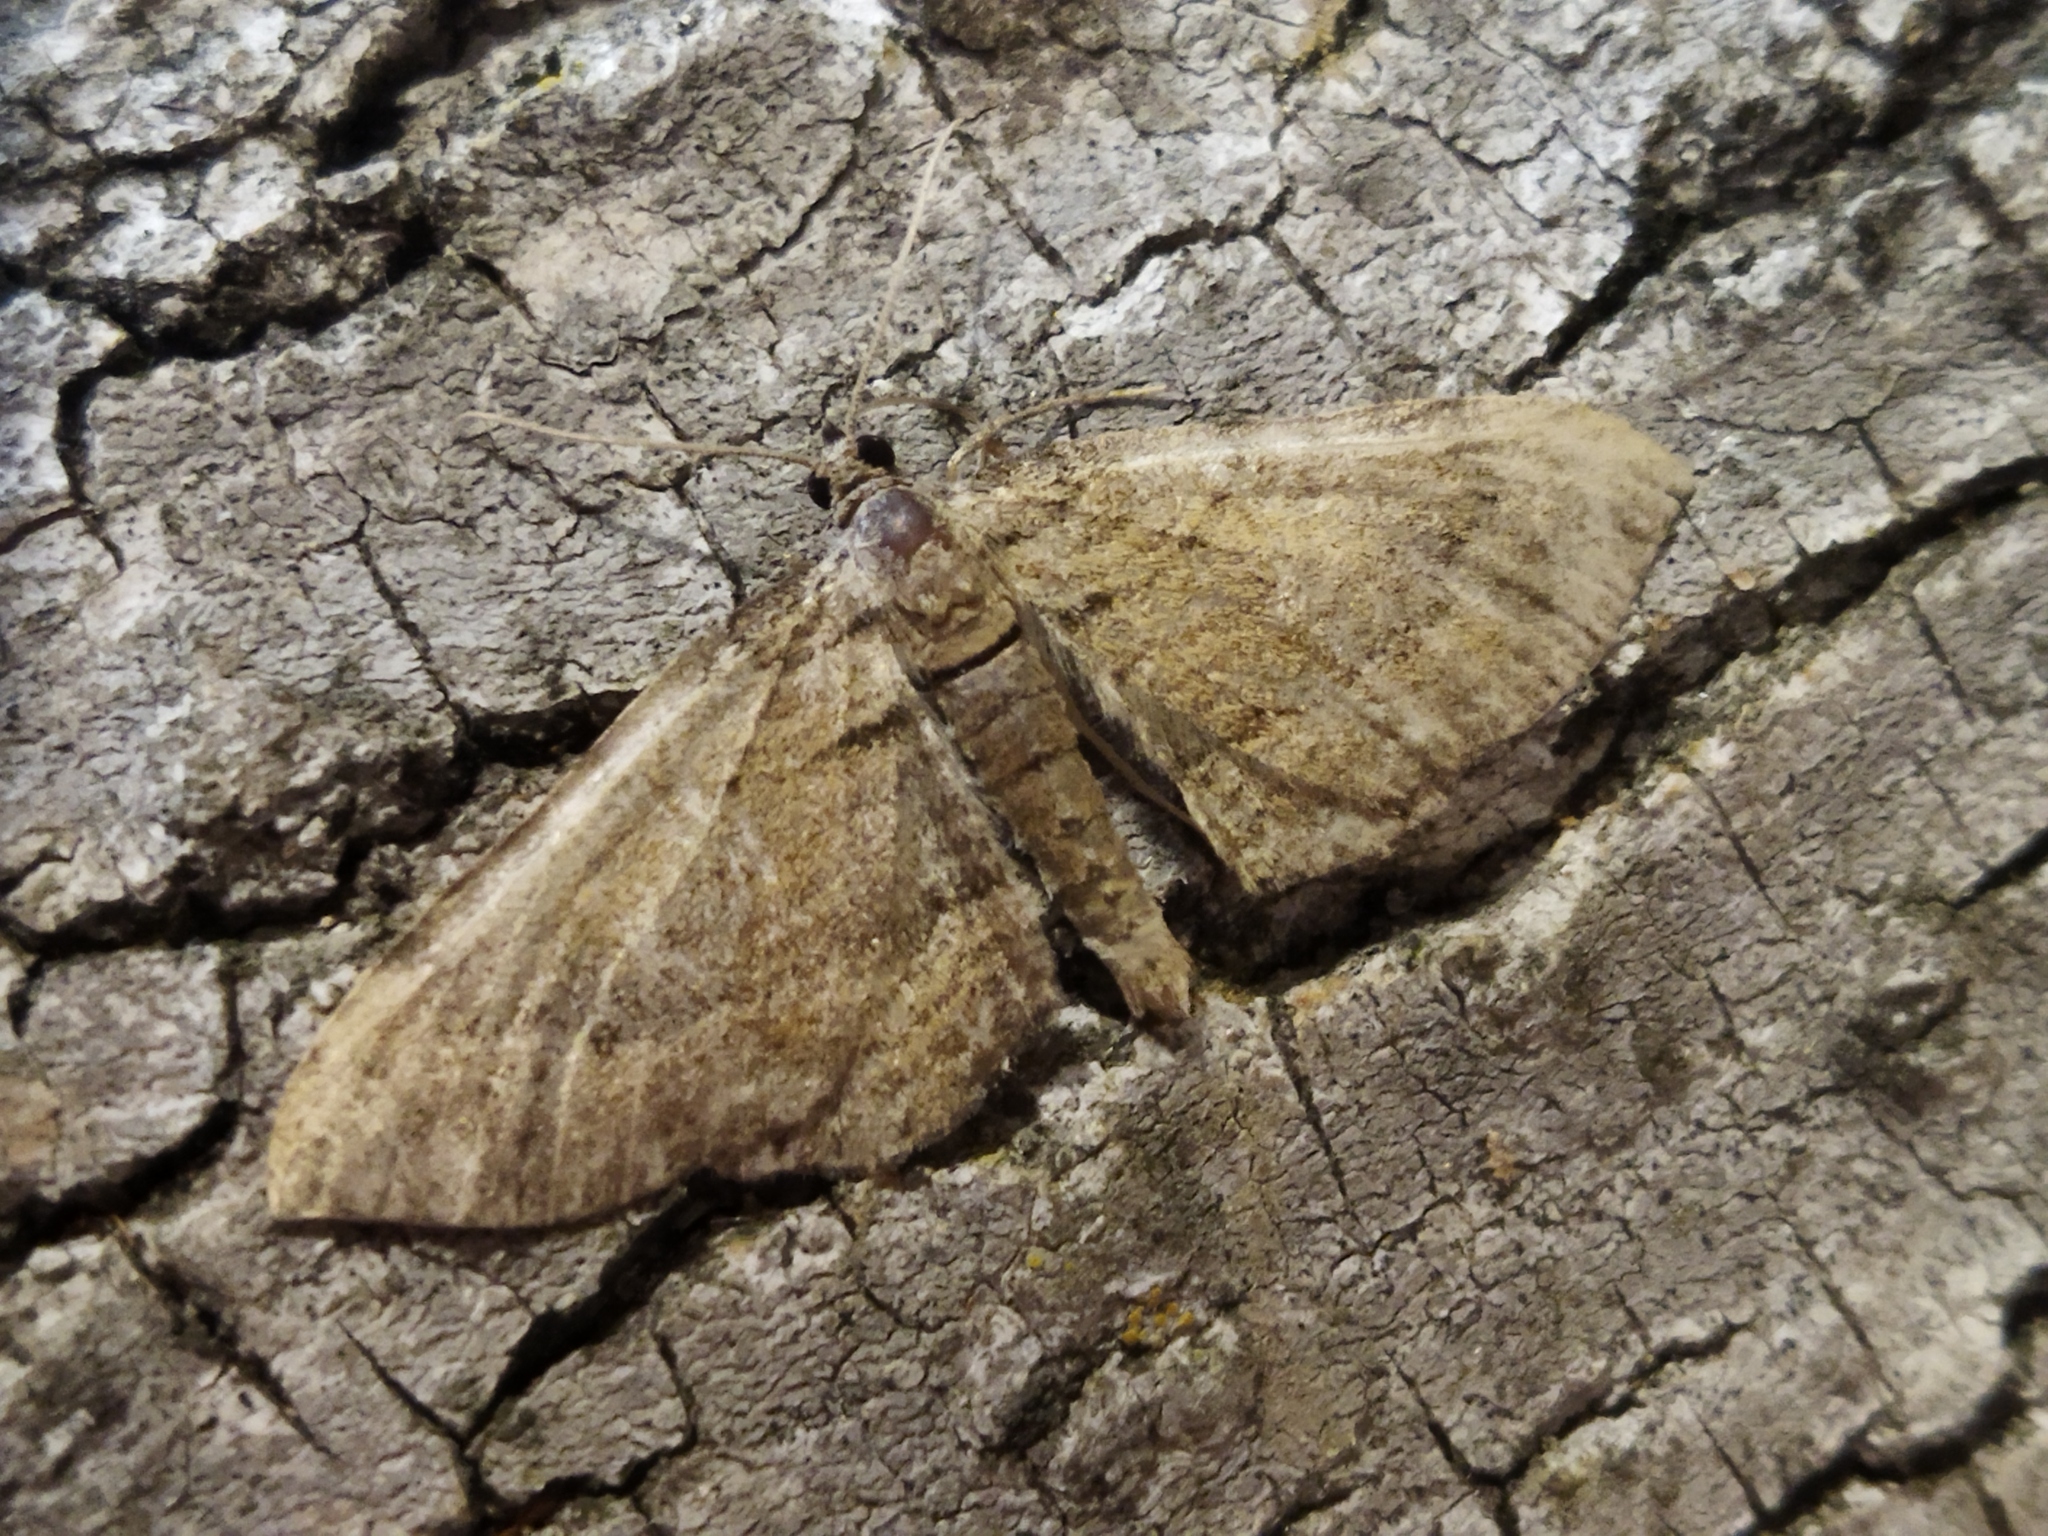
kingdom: Animalia
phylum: Arthropoda
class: Insecta
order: Lepidoptera
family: Geometridae
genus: Horisme
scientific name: Horisme
